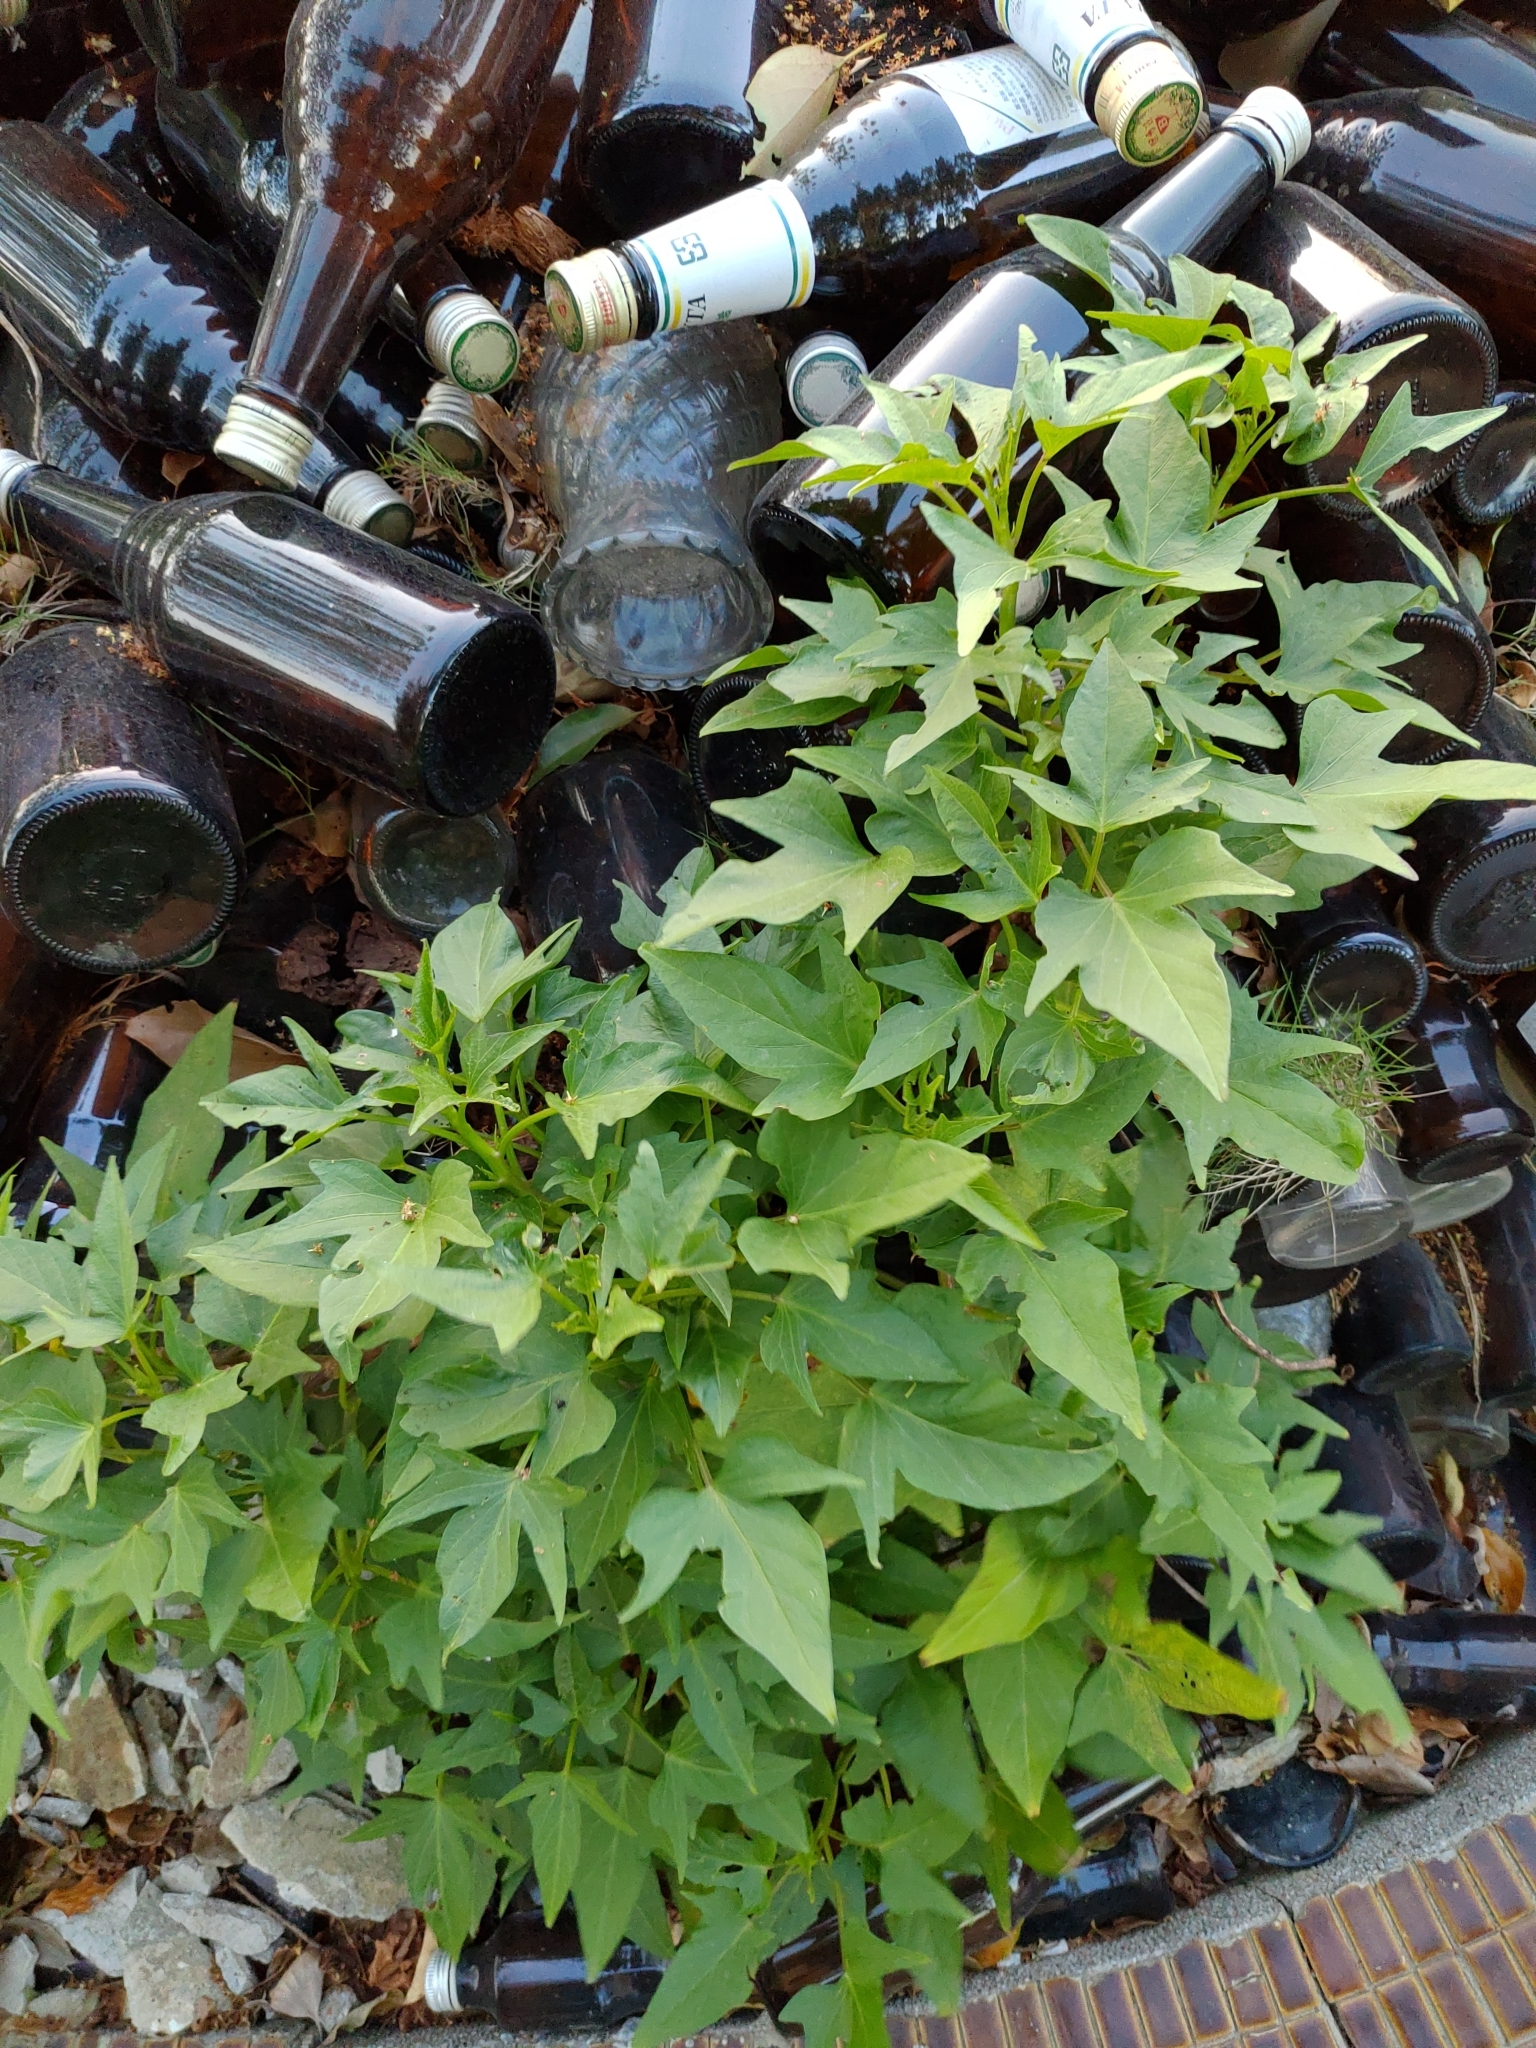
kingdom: Plantae
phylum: Tracheophyta
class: Magnoliopsida
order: Solanales
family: Convolvulaceae
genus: Ipomoea
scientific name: Ipomoea batatas
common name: Sweet-potato
